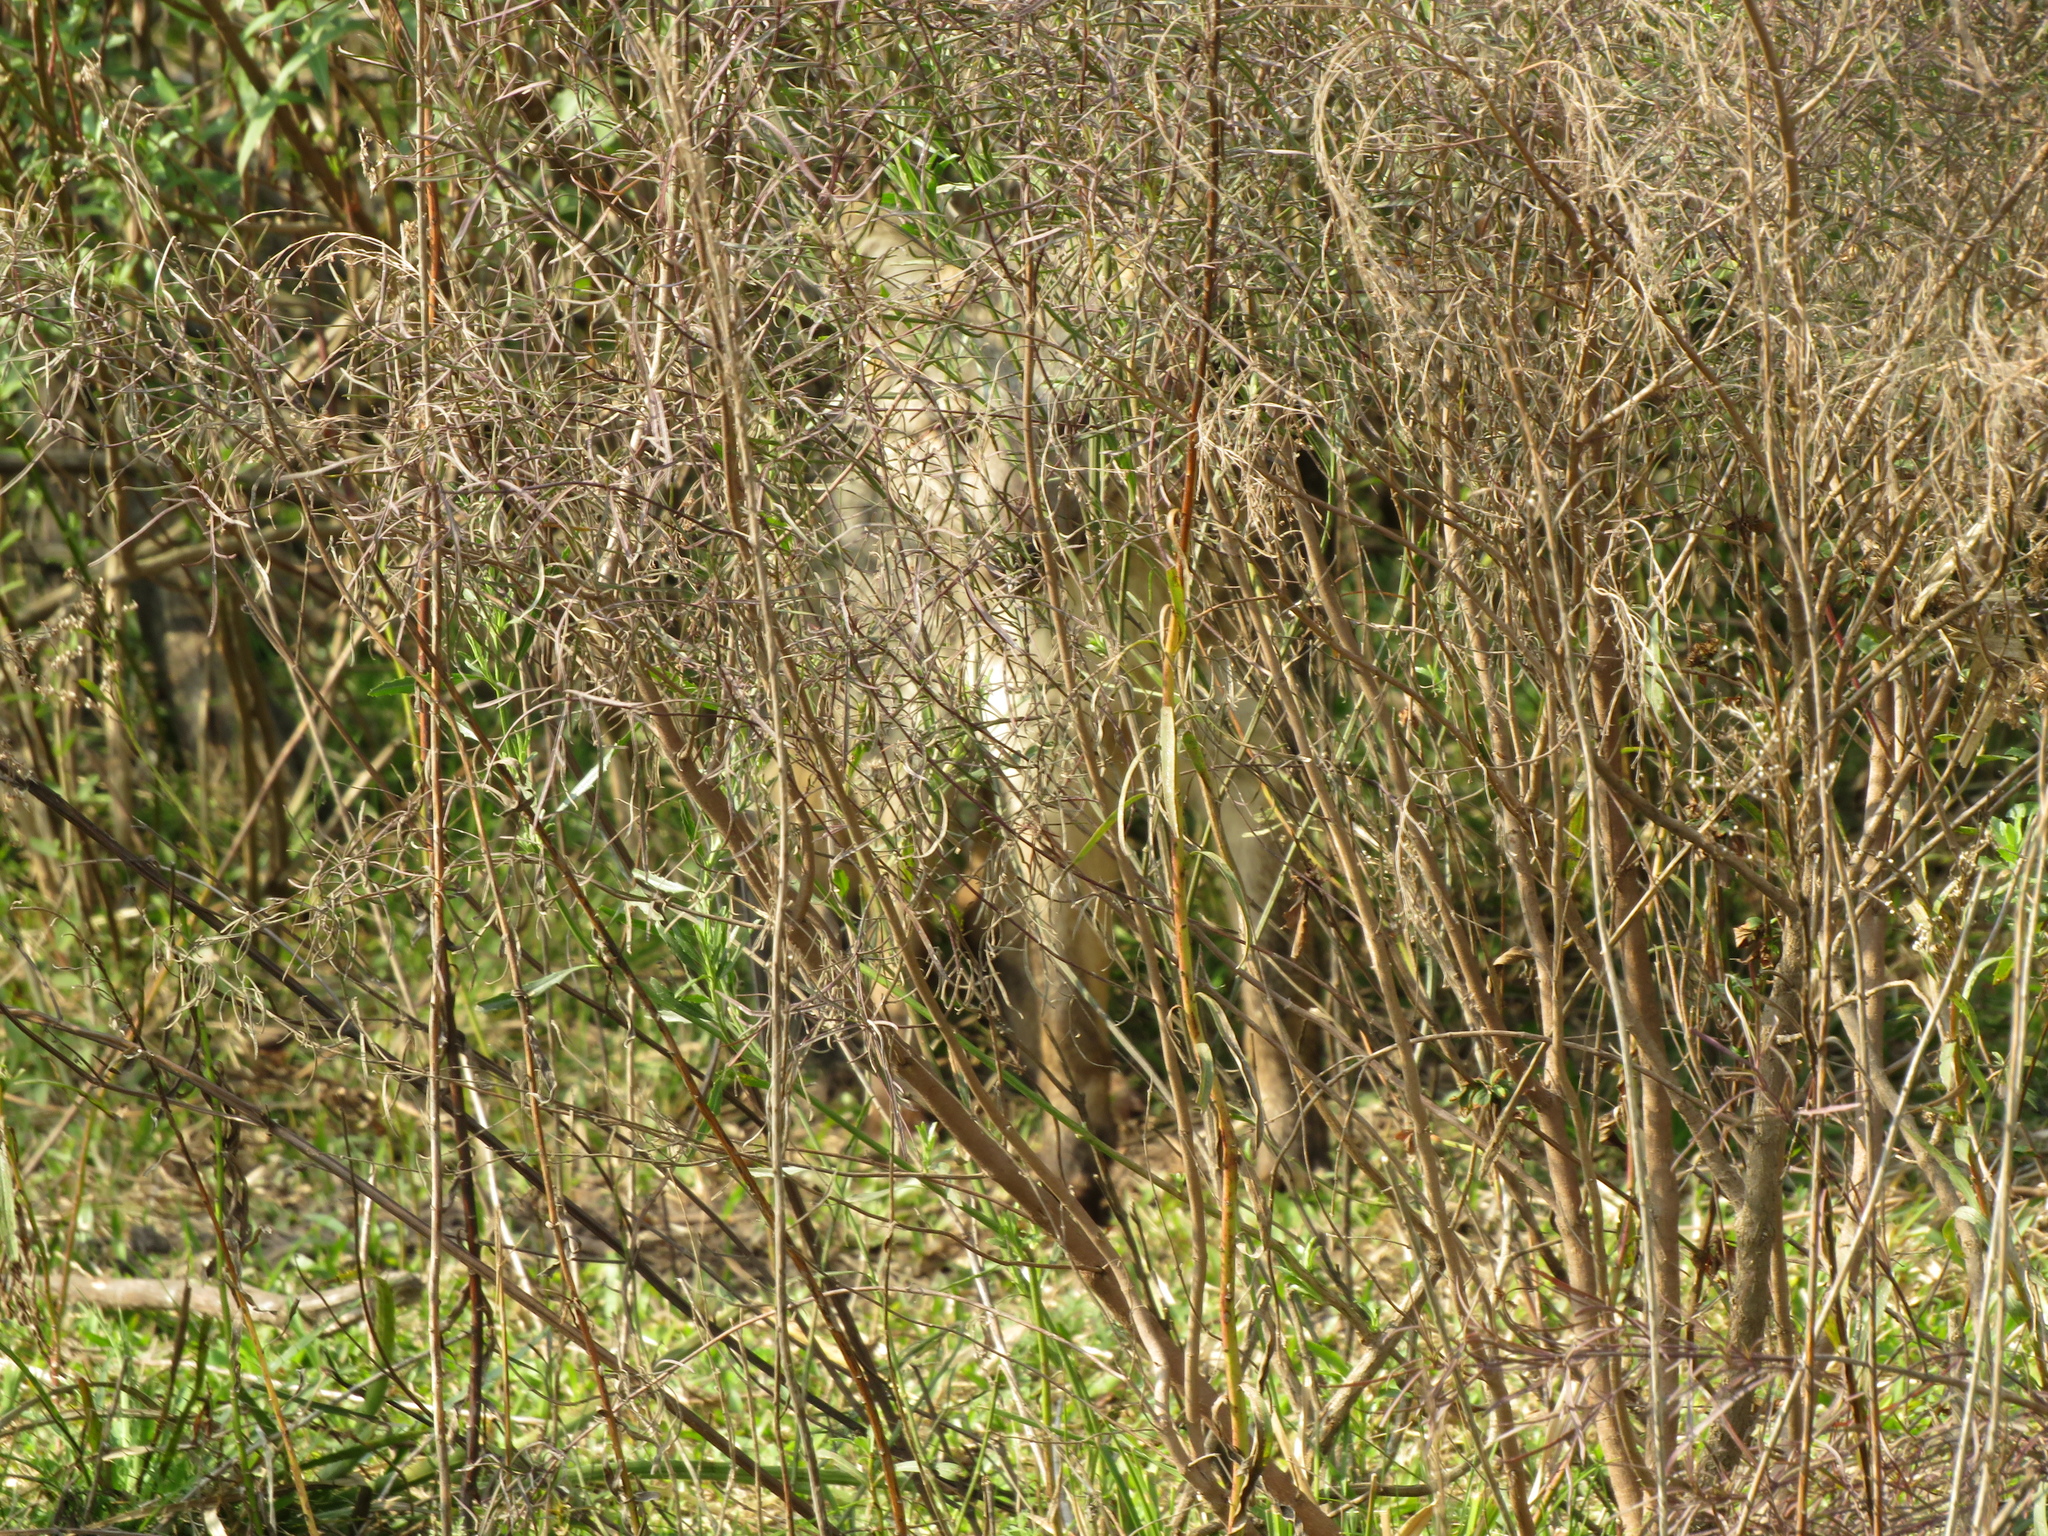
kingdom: Animalia
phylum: Chordata
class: Mammalia
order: Carnivora
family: Canidae
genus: Cerdocyon
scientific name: Cerdocyon thous
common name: Crab-eating fox
